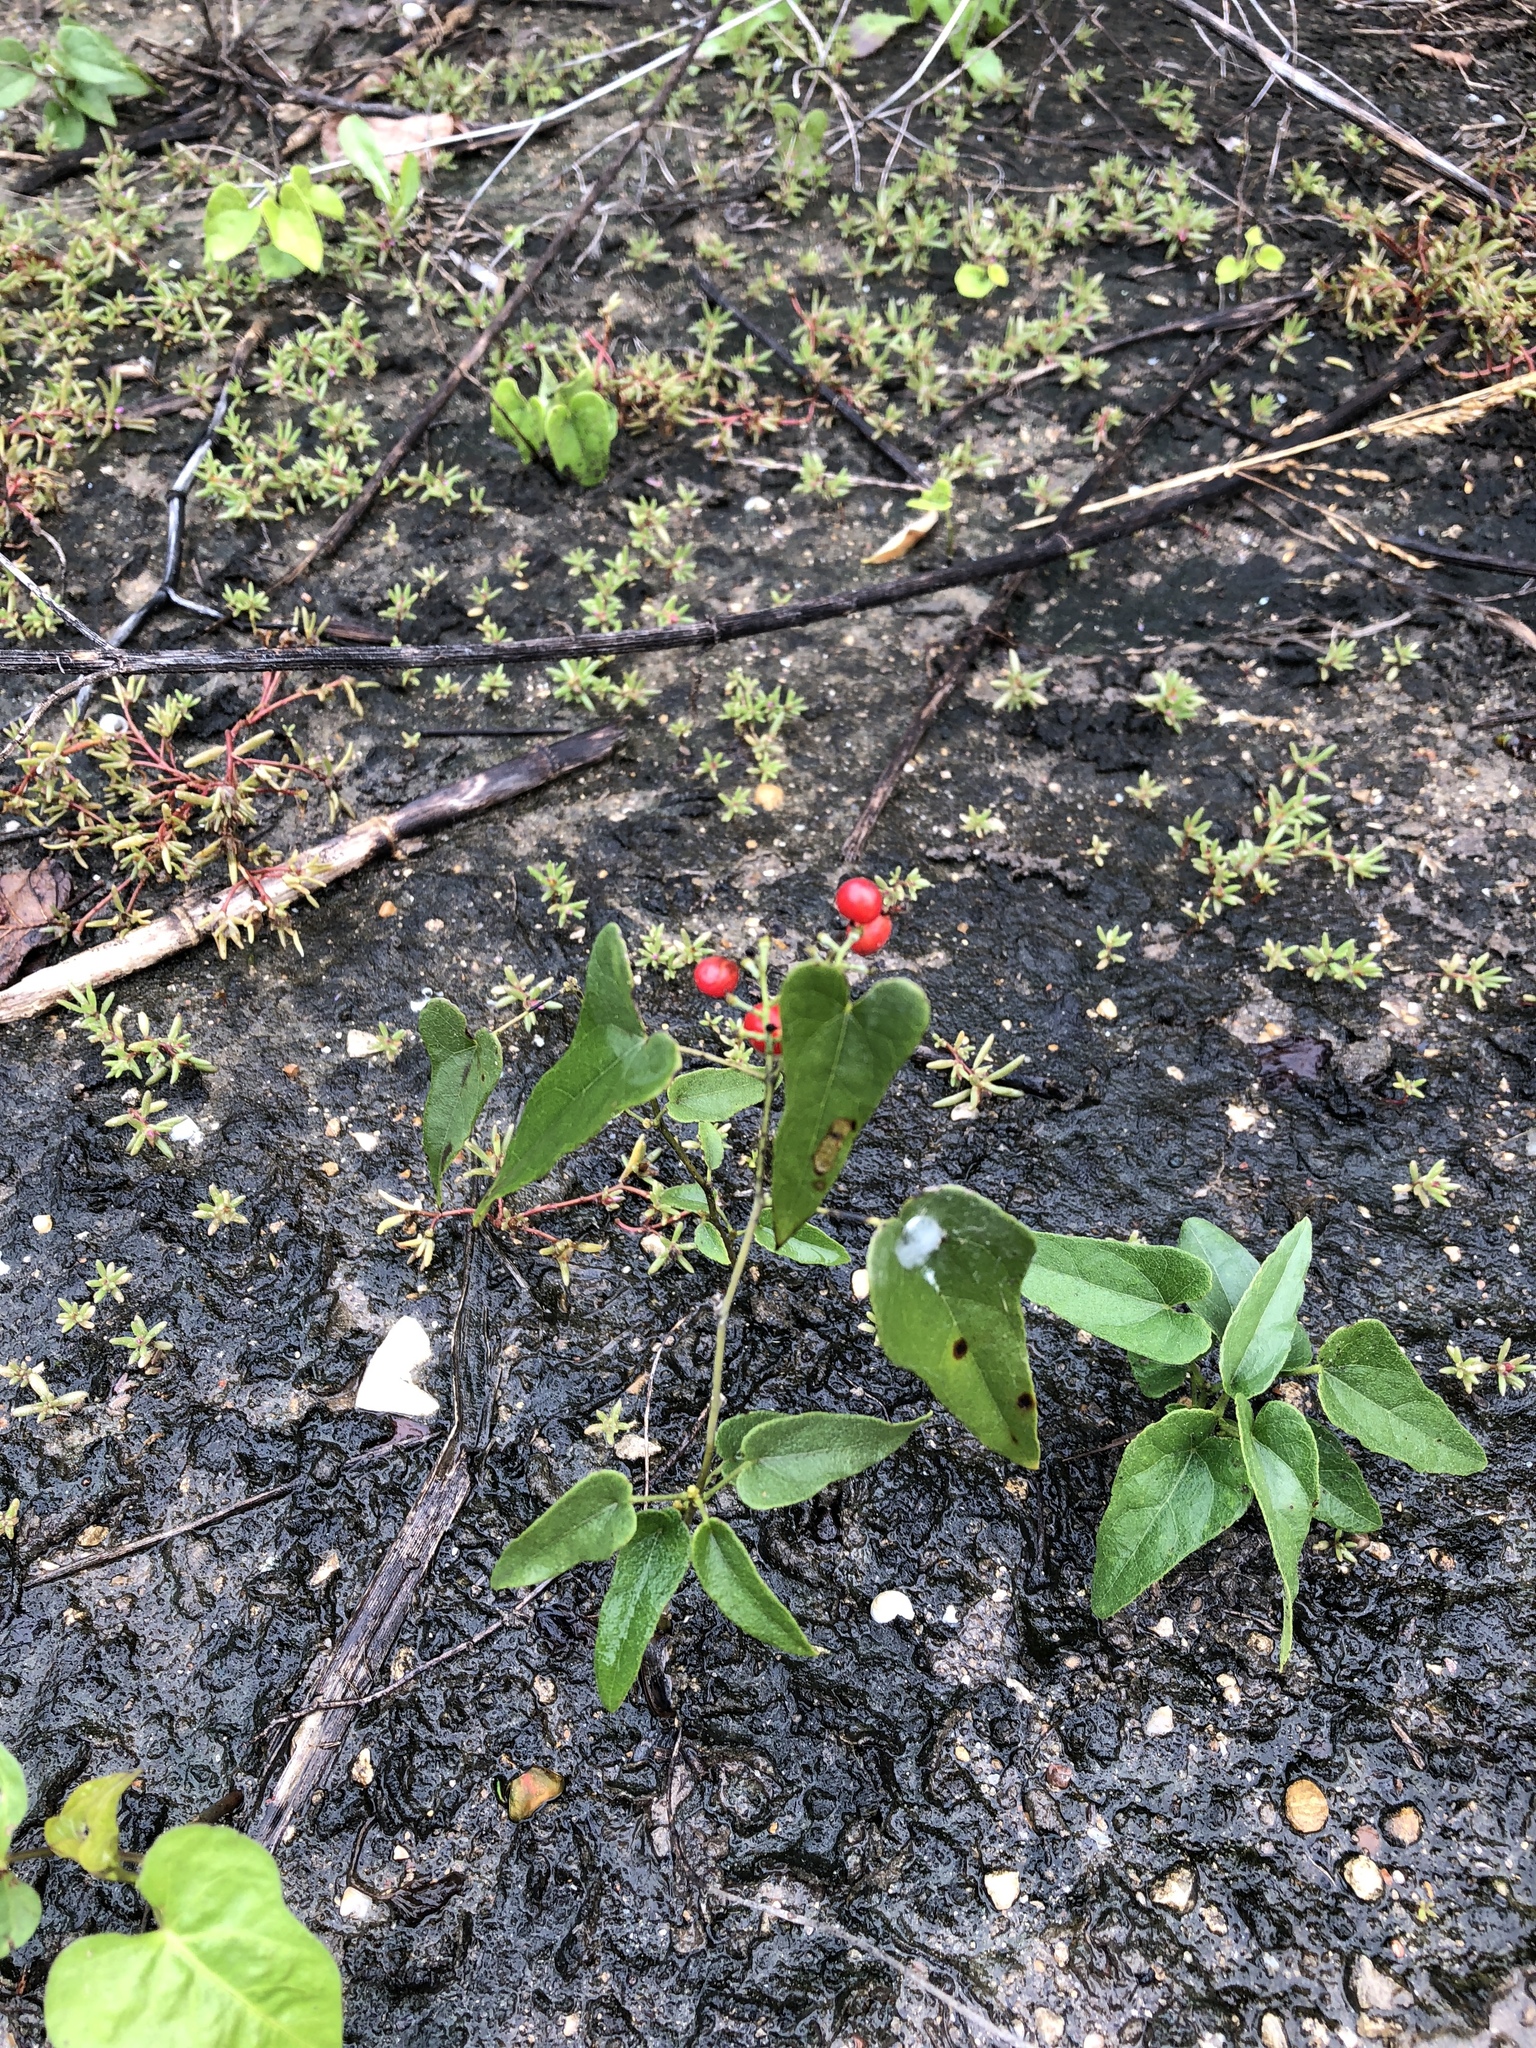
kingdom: Plantae
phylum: Tracheophyta
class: Magnoliopsida
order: Ranunculales
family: Menispermaceae
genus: Cocculus
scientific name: Cocculus carolinus
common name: Carolina moonseed
